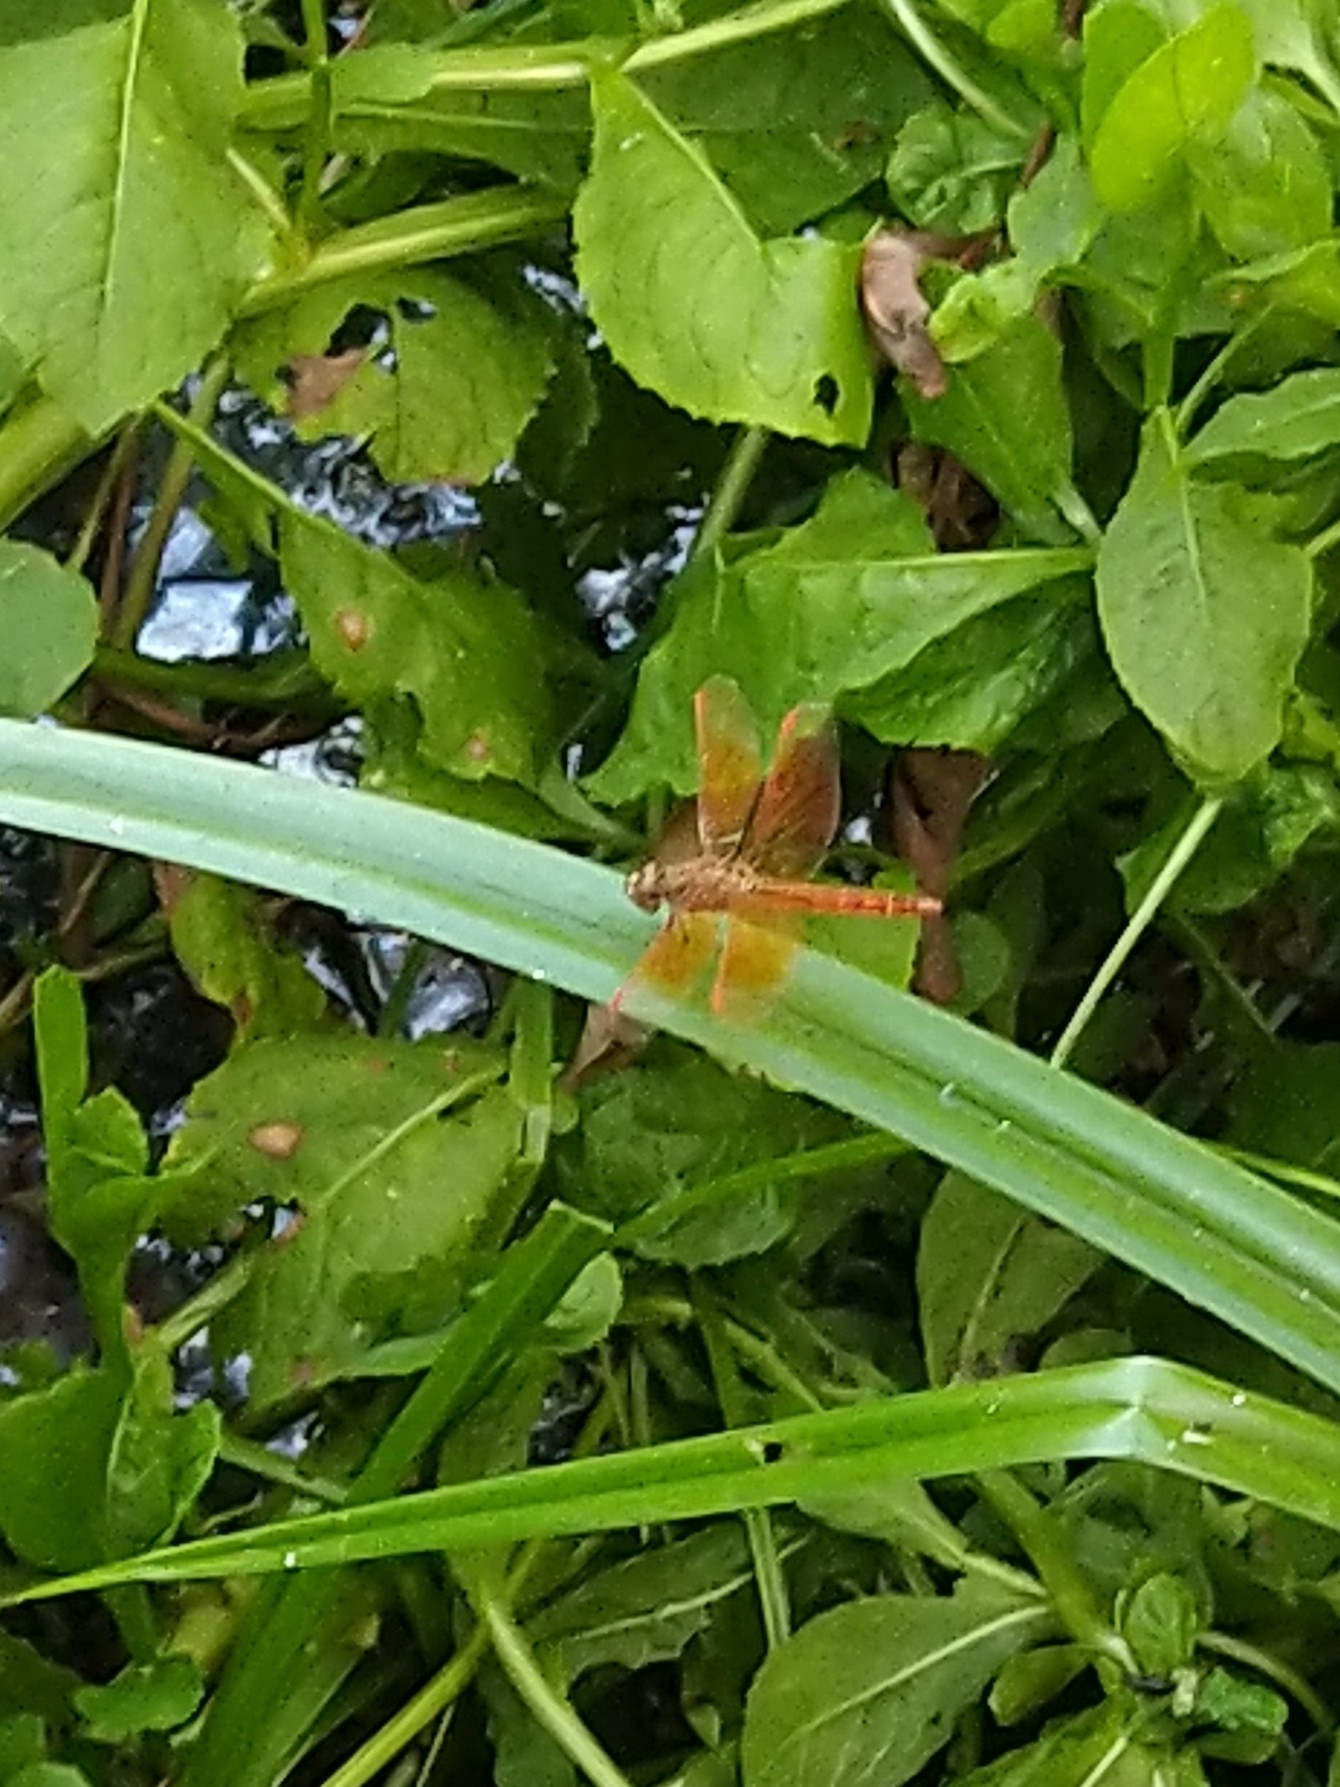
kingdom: Animalia
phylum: Arthropoda
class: Insecta
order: Odonata
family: Libellulidae
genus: Brachythemis
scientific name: Brachythemis contaminata
